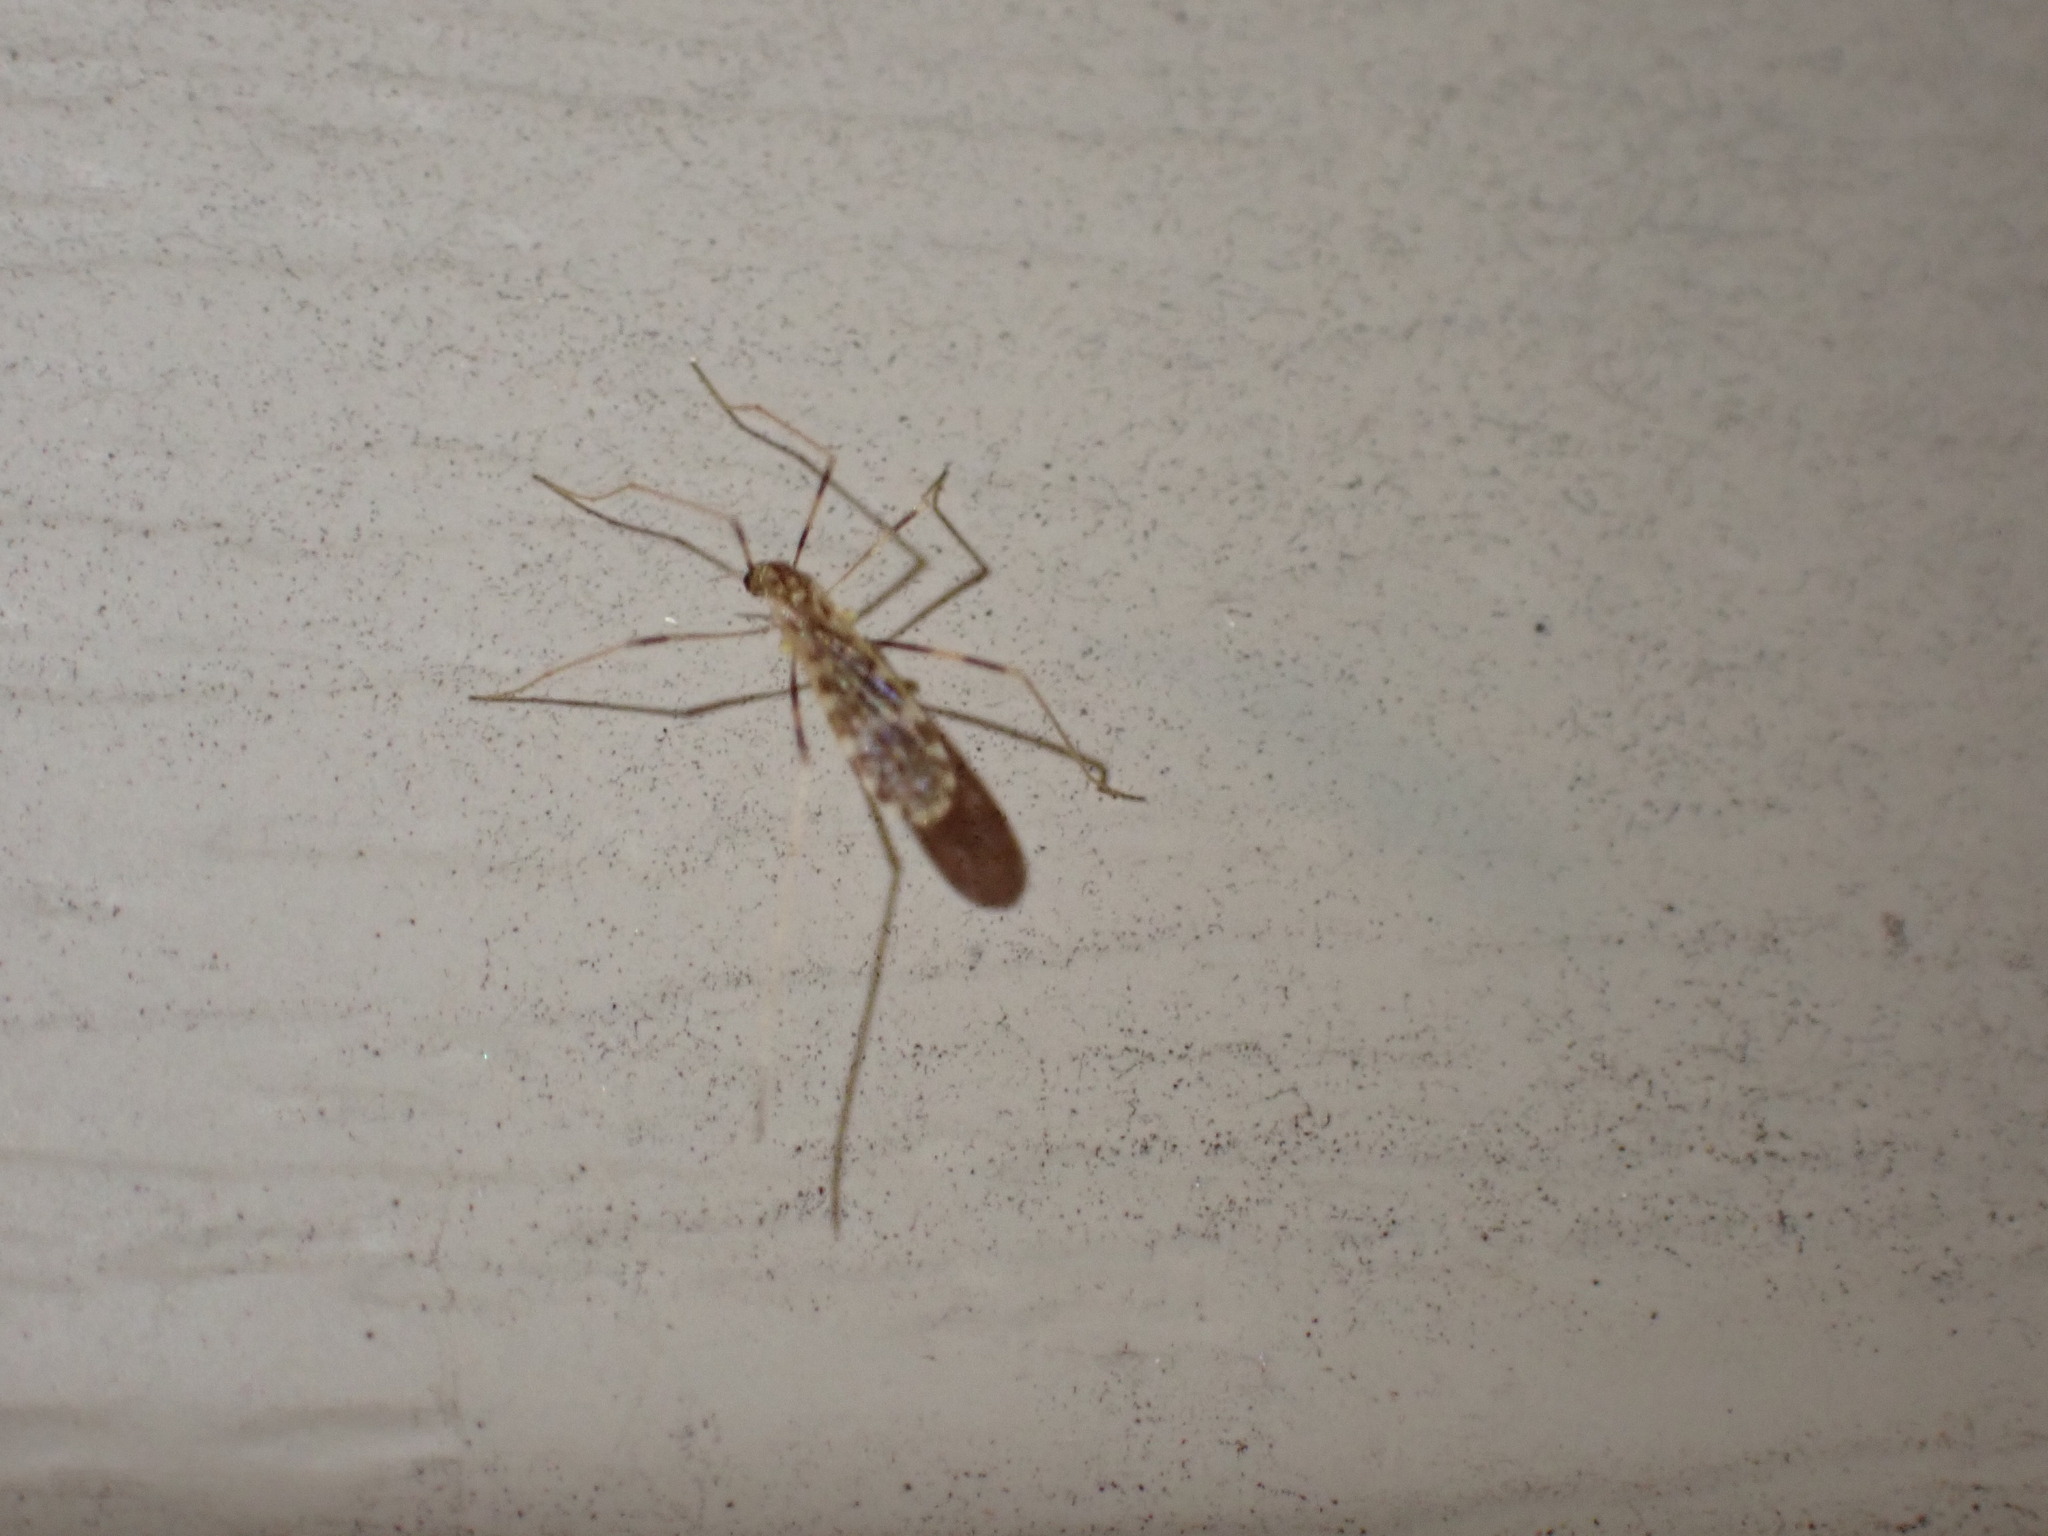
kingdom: Animalia
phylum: Arthropoda
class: Insecta
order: Diptera
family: Limoniidae
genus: Erioptera
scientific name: Erioptera caliptera
